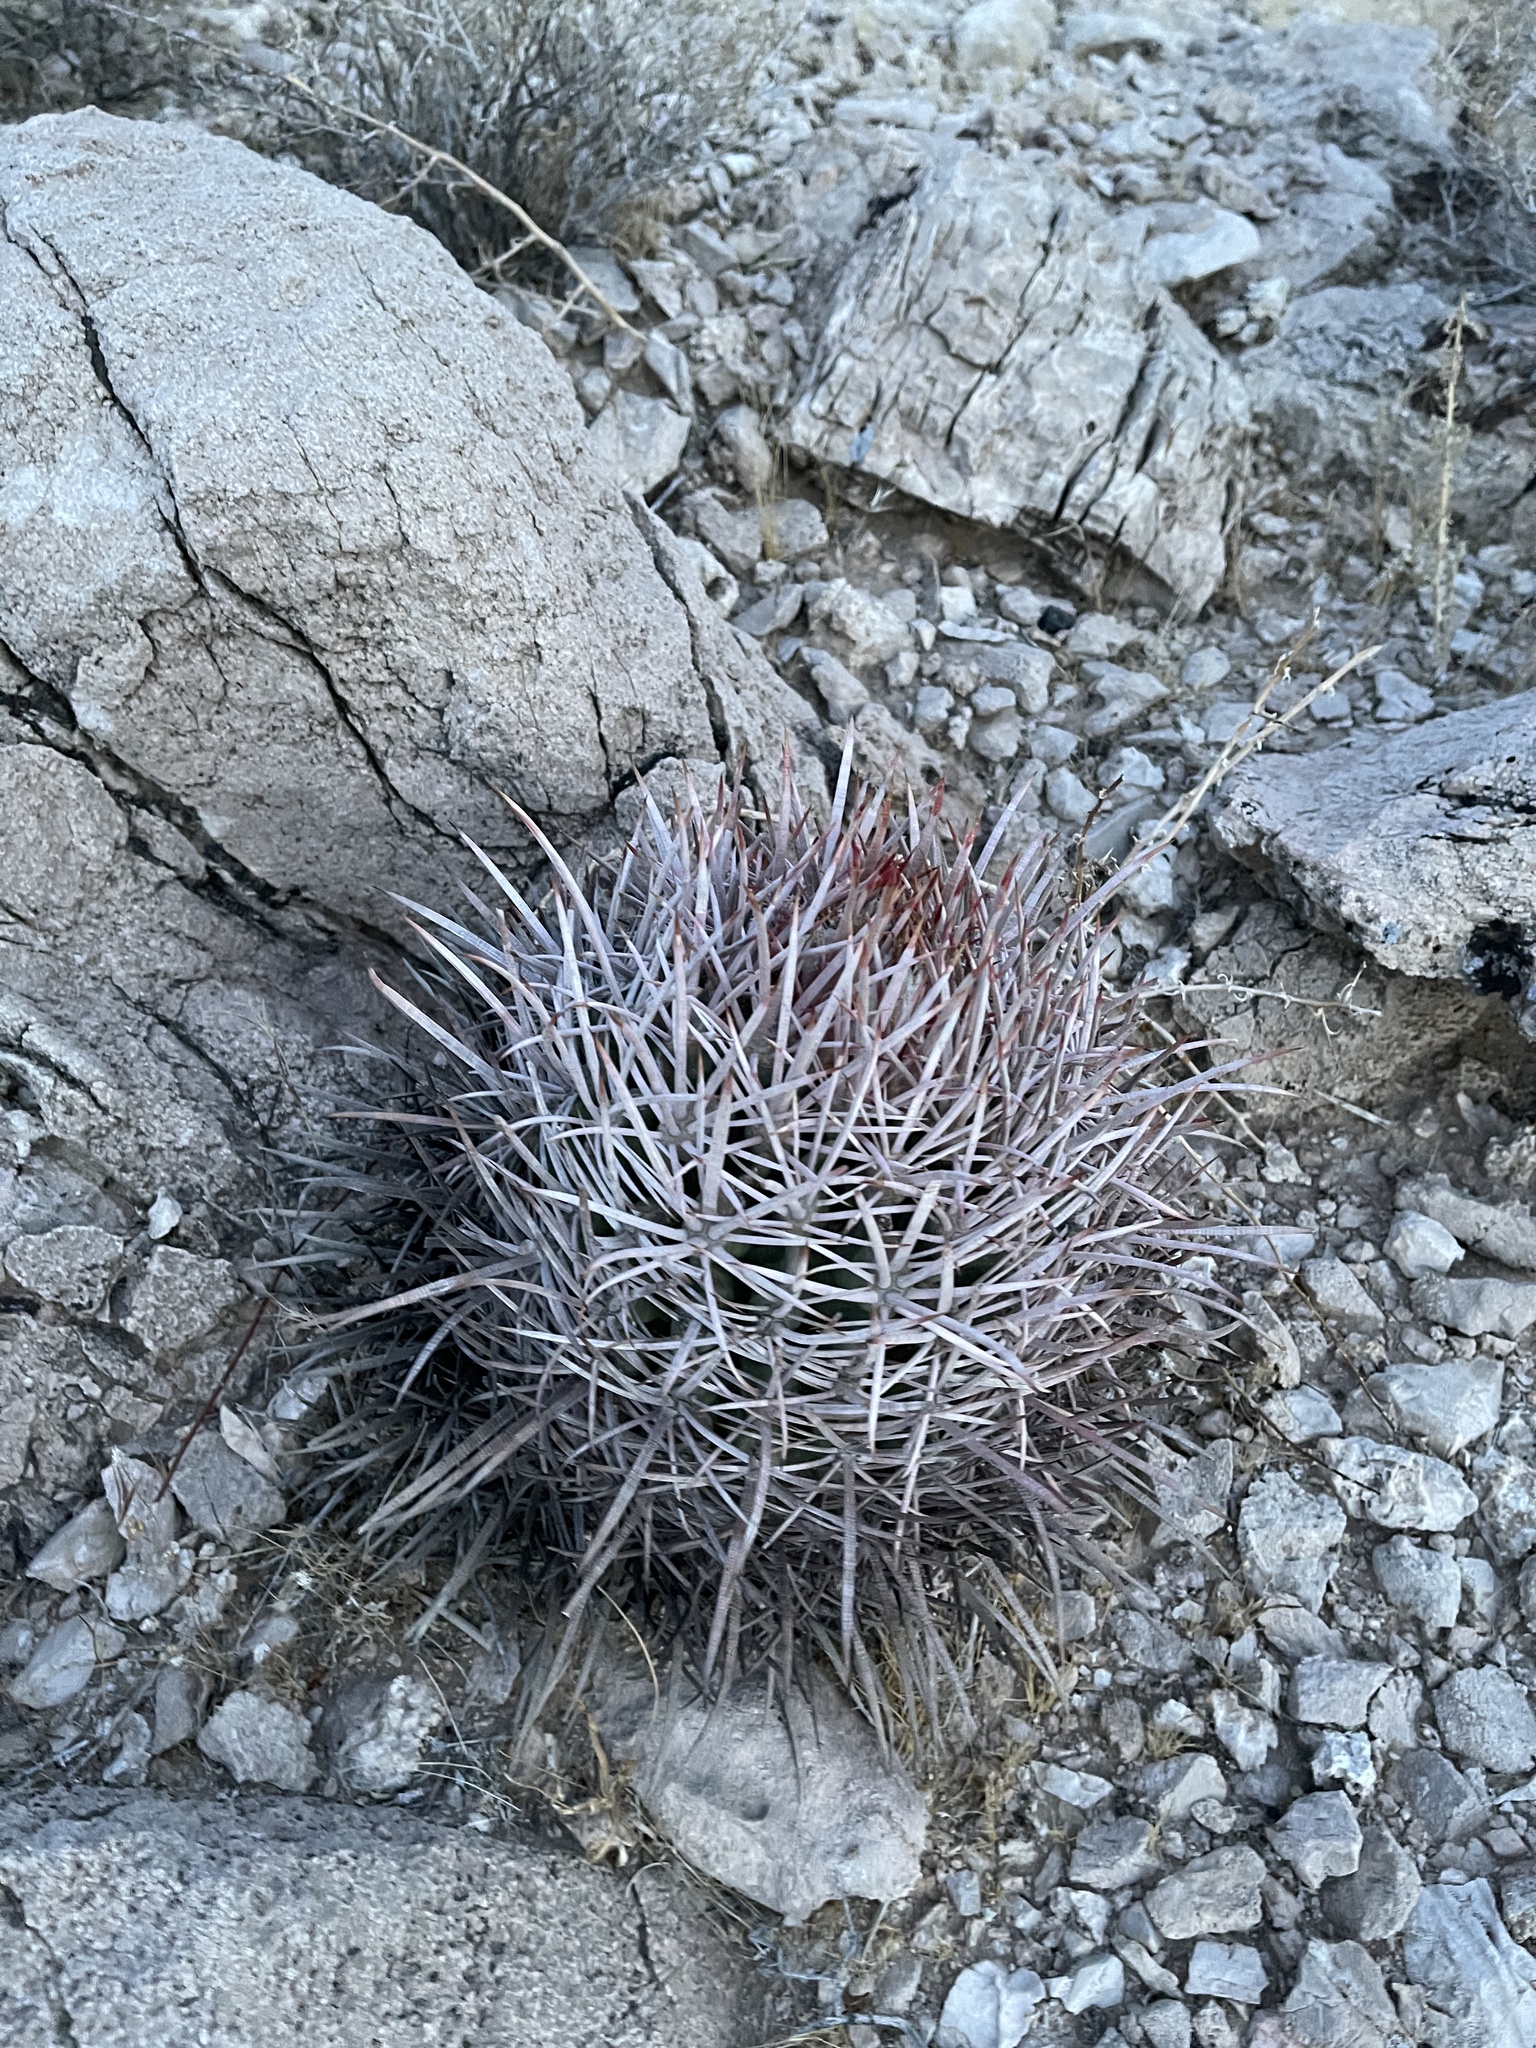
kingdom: Plantae
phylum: Tracheophyta
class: Magnoliopsida
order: Caryophyllales
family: Cactaceae
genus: Echinocactus
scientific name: Echinocactus polycephalus
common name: Cottontop cactus
